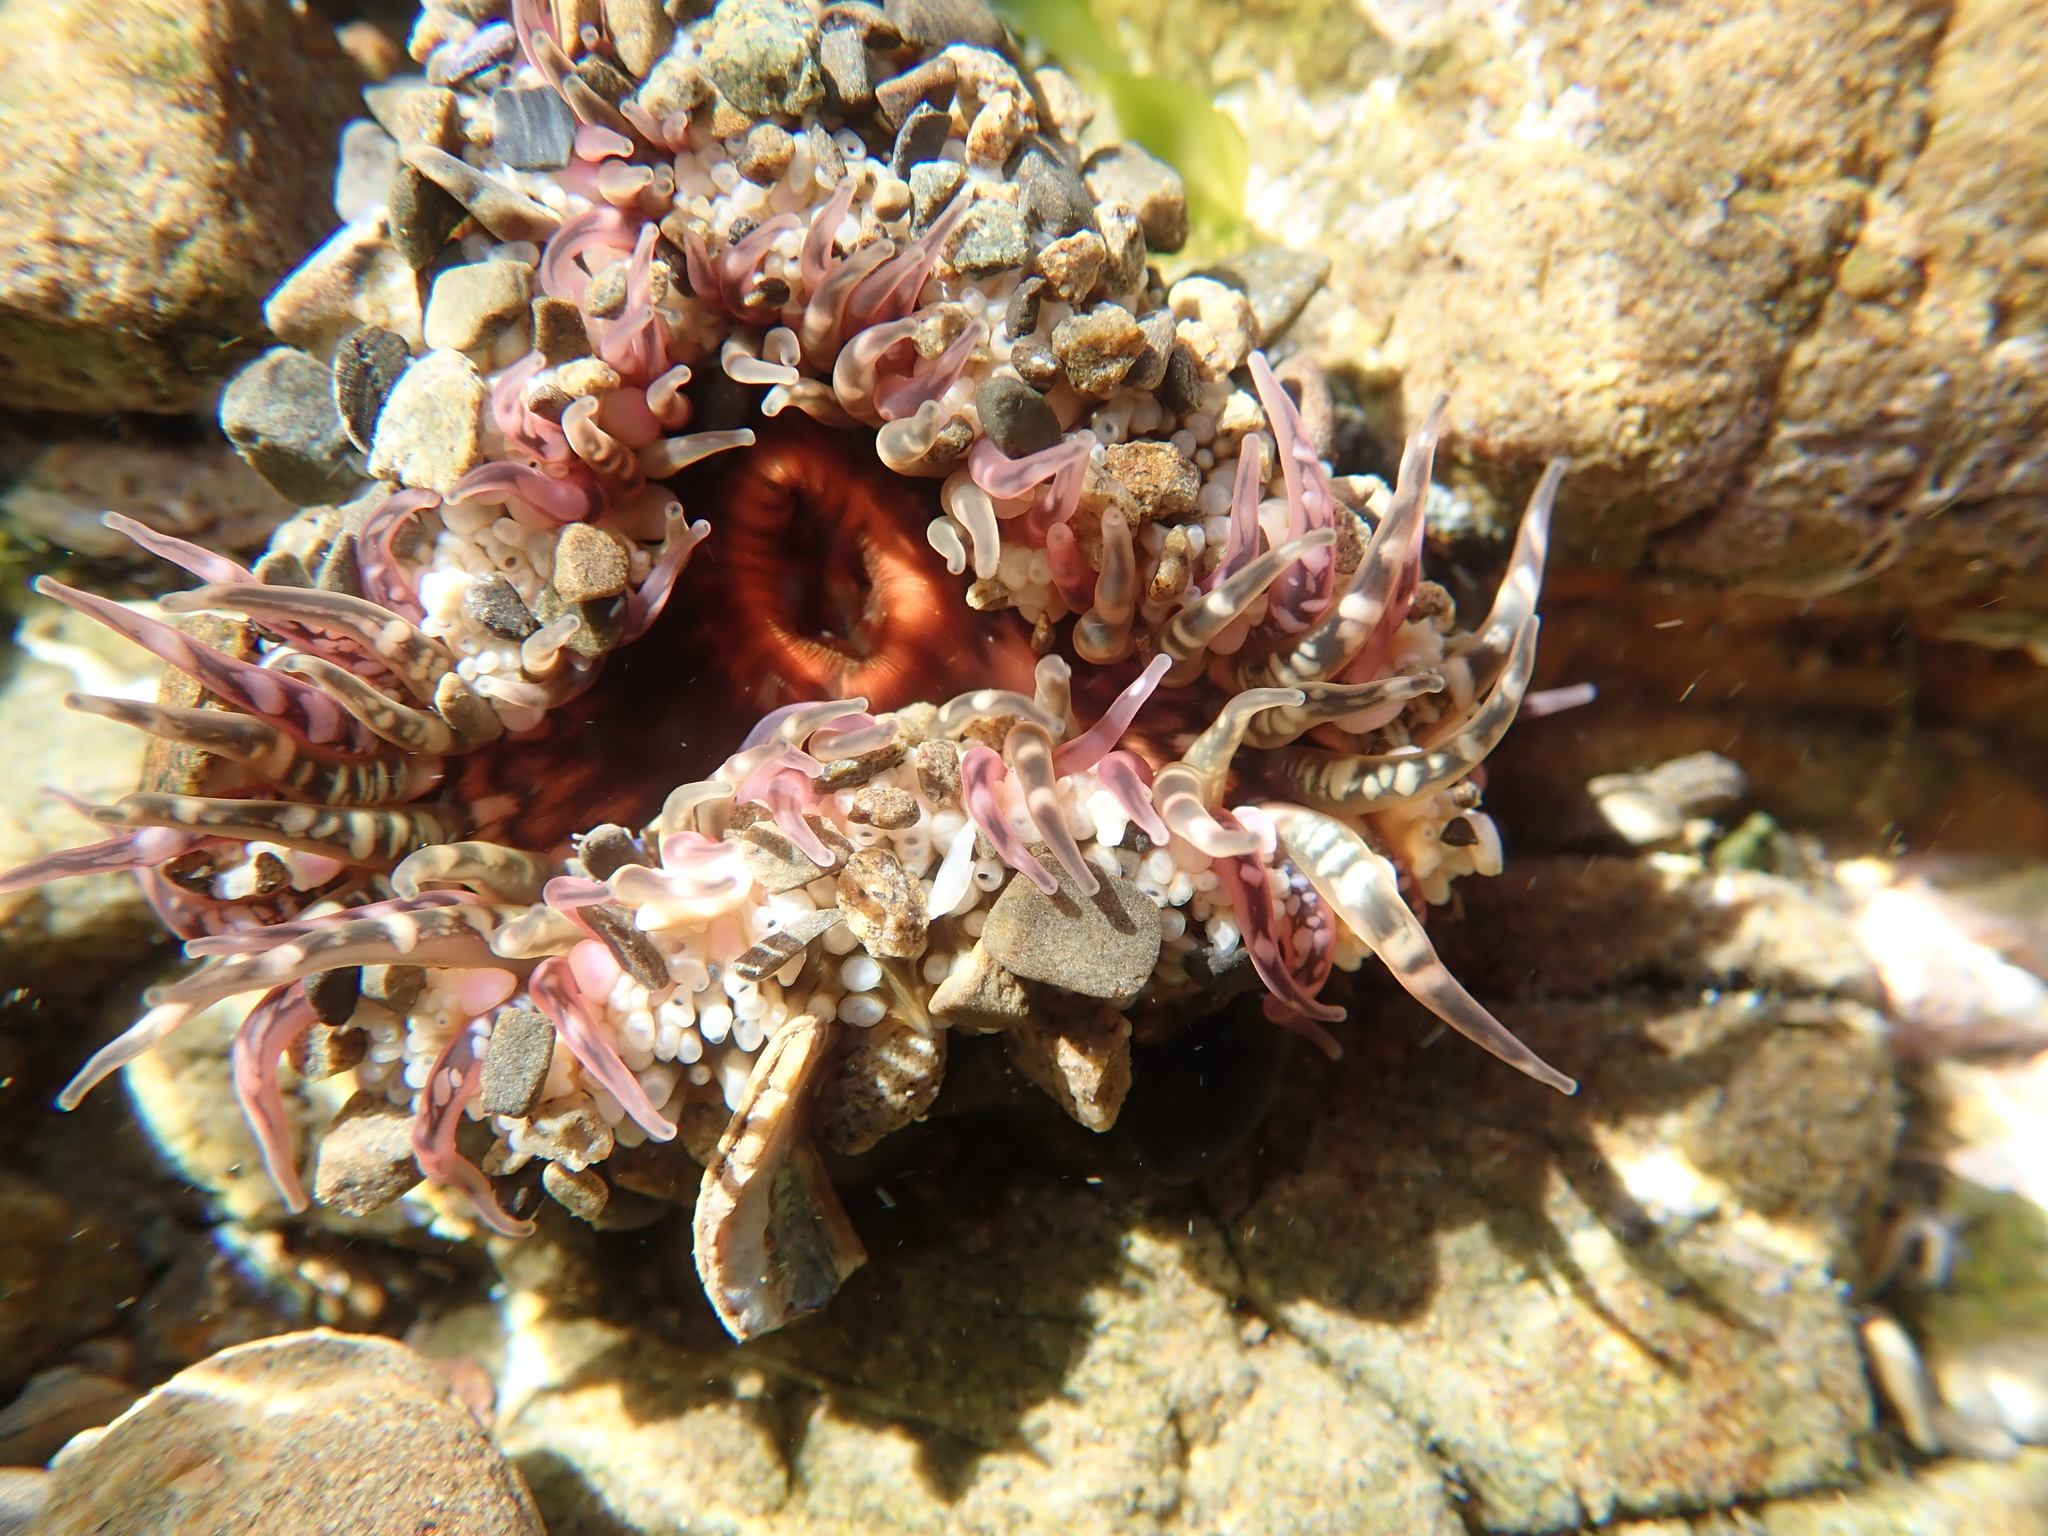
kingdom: Animalia
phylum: Cnidaria
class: Anthozoa
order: Actiniaria
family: Actiniidae
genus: Oulactis
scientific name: Oulactis muscosa
